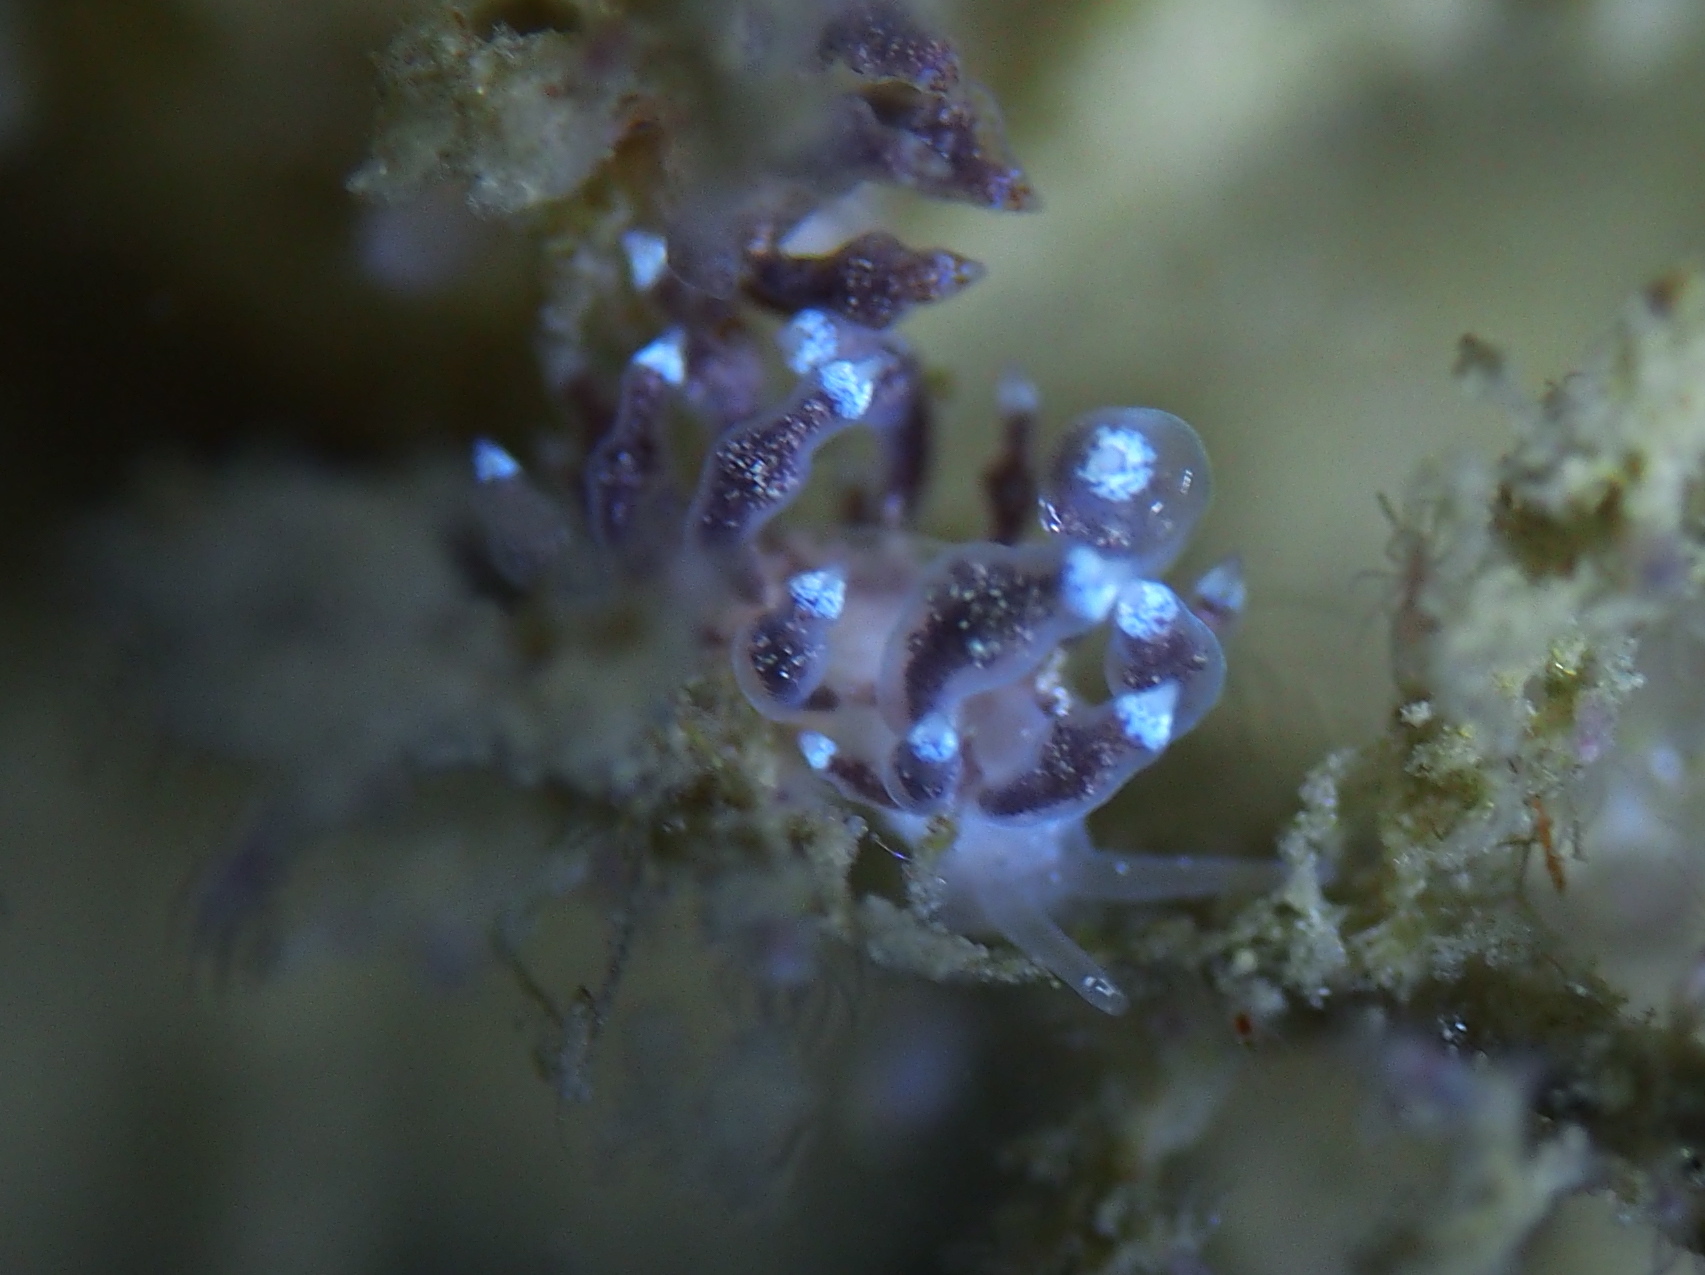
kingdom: Animalia
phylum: Mollusca
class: Gastropoda
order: Nudibranchia
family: Eubranchidae
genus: Eubranchus
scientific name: Eubranchus exiguus
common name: Balloon aeolis
